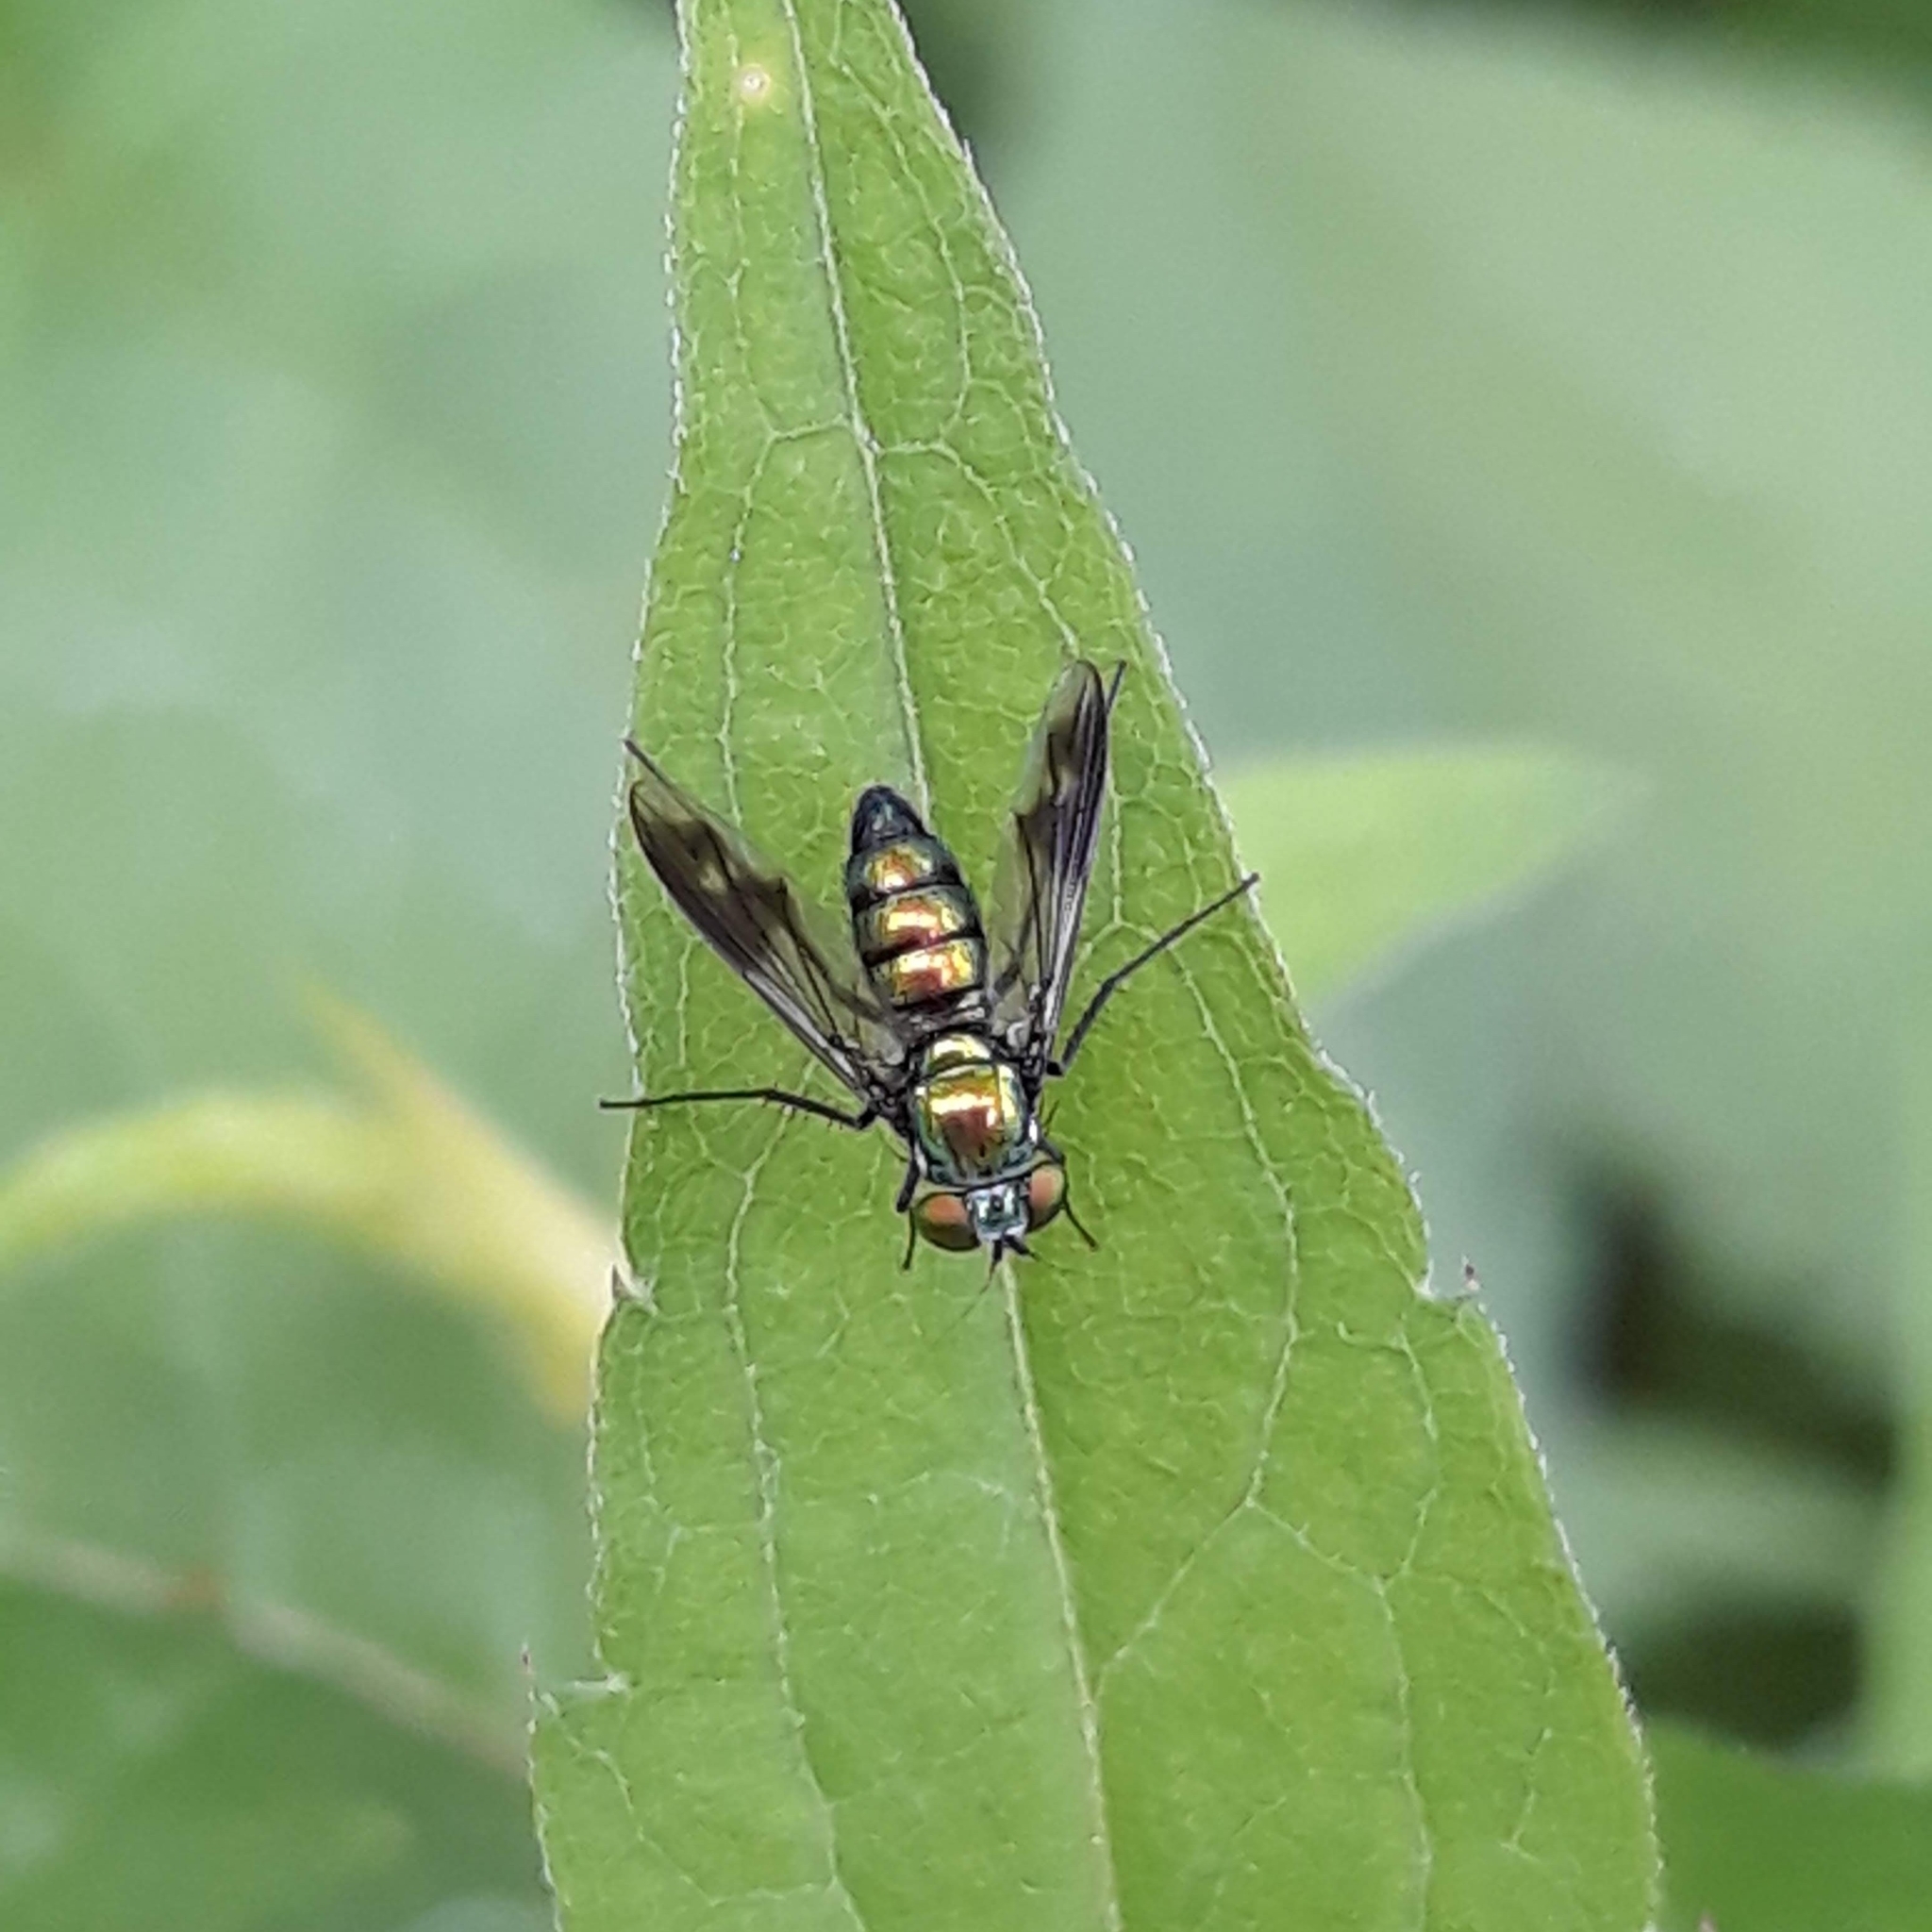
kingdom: Animalia
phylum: Arthropoda
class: Insecta
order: Diptera
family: Dolichopodidae
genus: Condylostylus
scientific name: Condylostylus patibulatus
